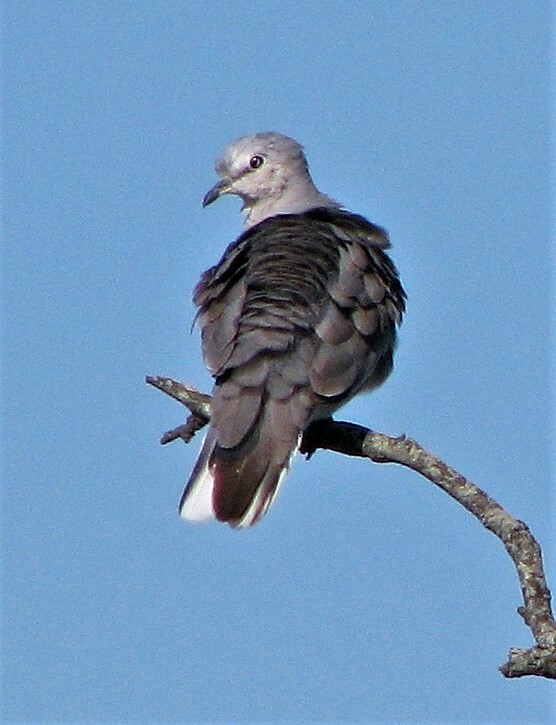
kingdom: Animalia
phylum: Chordata
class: Aves
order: Columbiformes
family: Columbidae
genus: Columbina
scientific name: Columbina picui
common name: Picui ground dove
